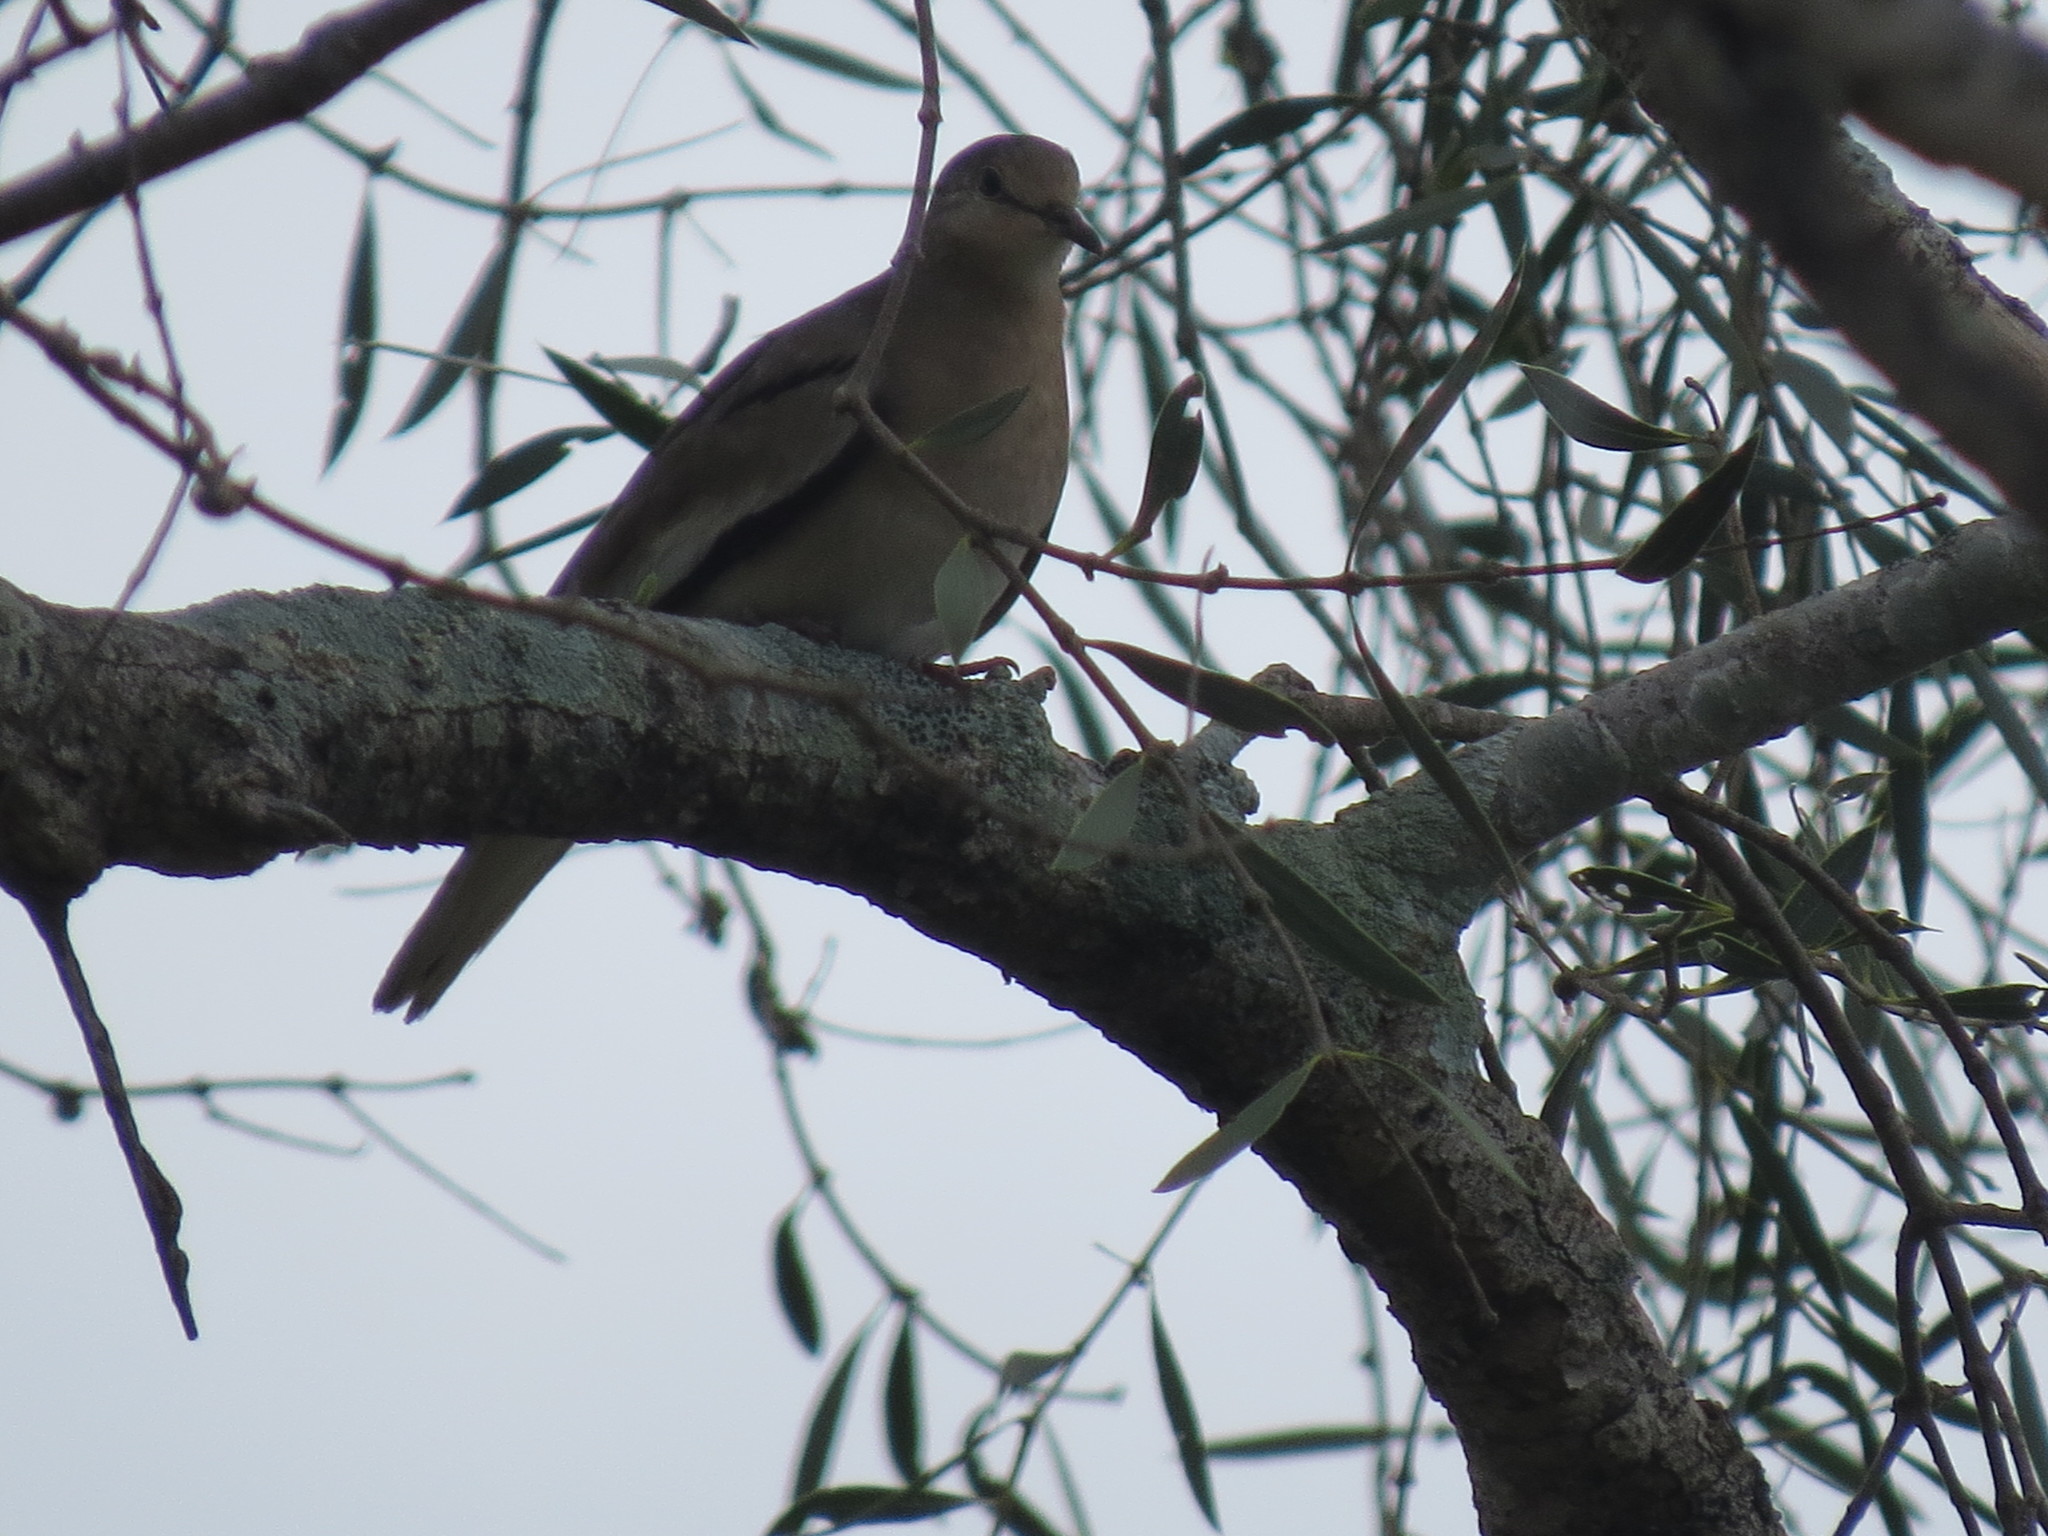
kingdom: Animalia
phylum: Chordata
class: Aves
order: Columbiformes
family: Columbidae
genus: Columbina
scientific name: Columbina picui
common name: Picui ground dove
